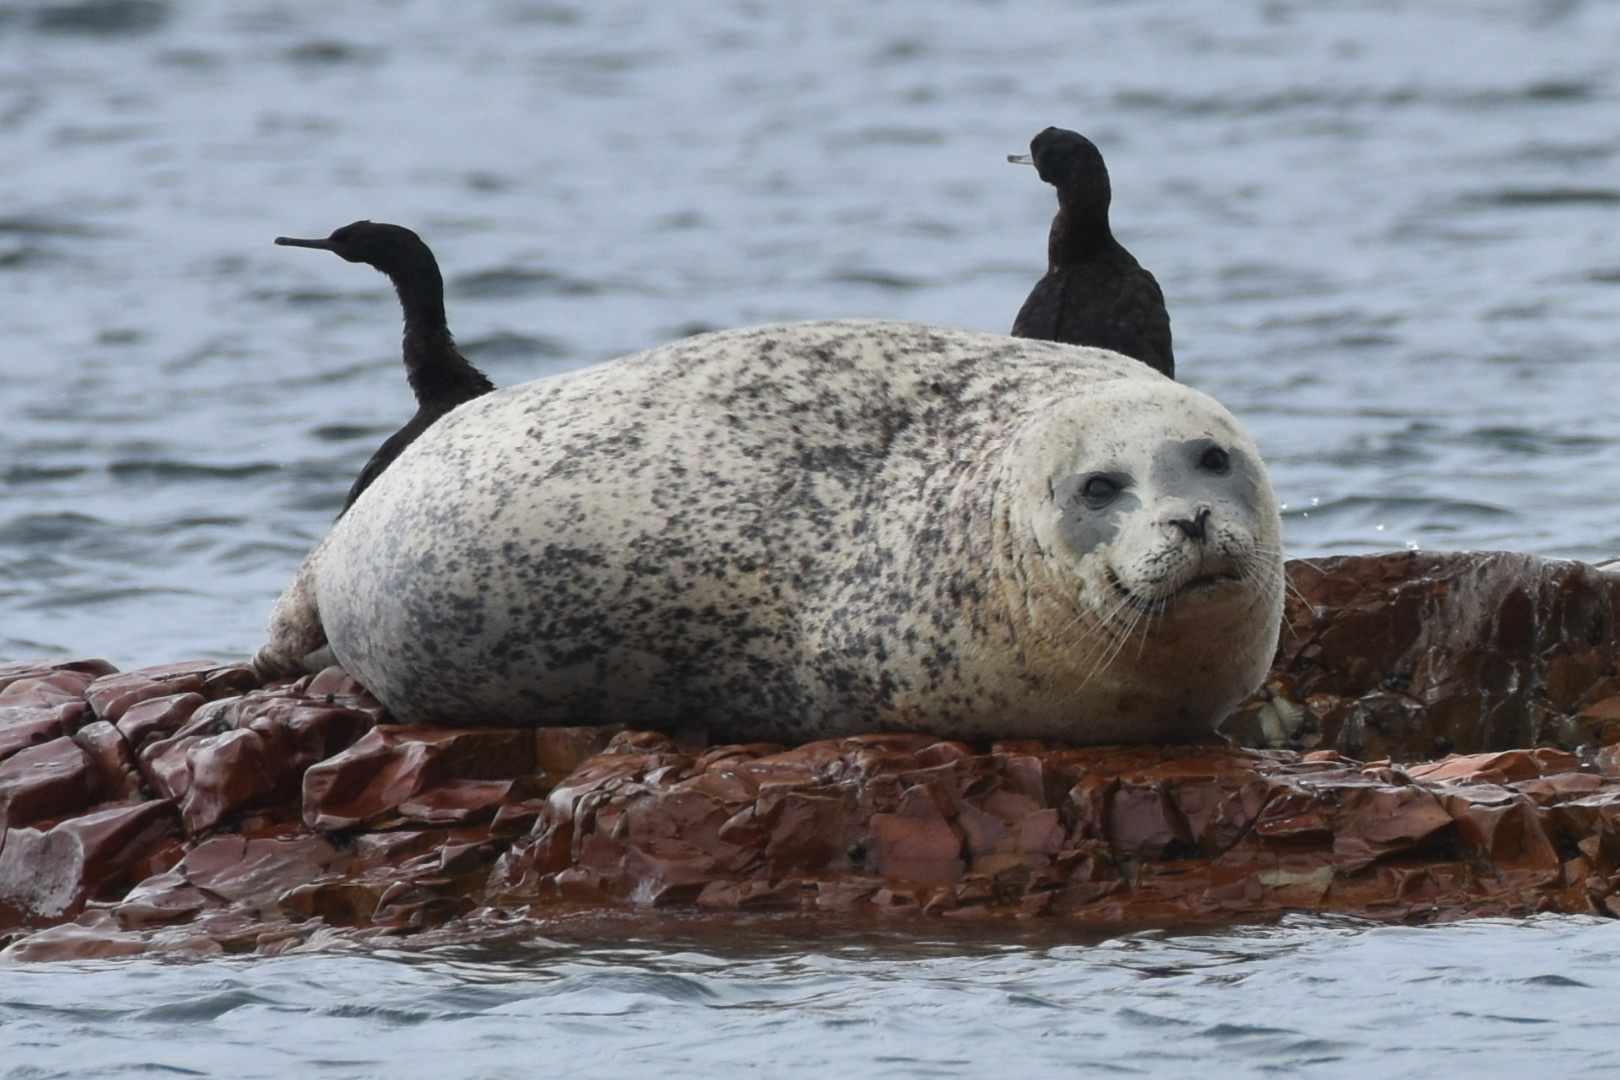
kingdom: Animalia
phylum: Chordata
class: Mammalia
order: Carnivora
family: Phocidae
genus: Phoca
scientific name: Phoca vitulina
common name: Harbor seal
